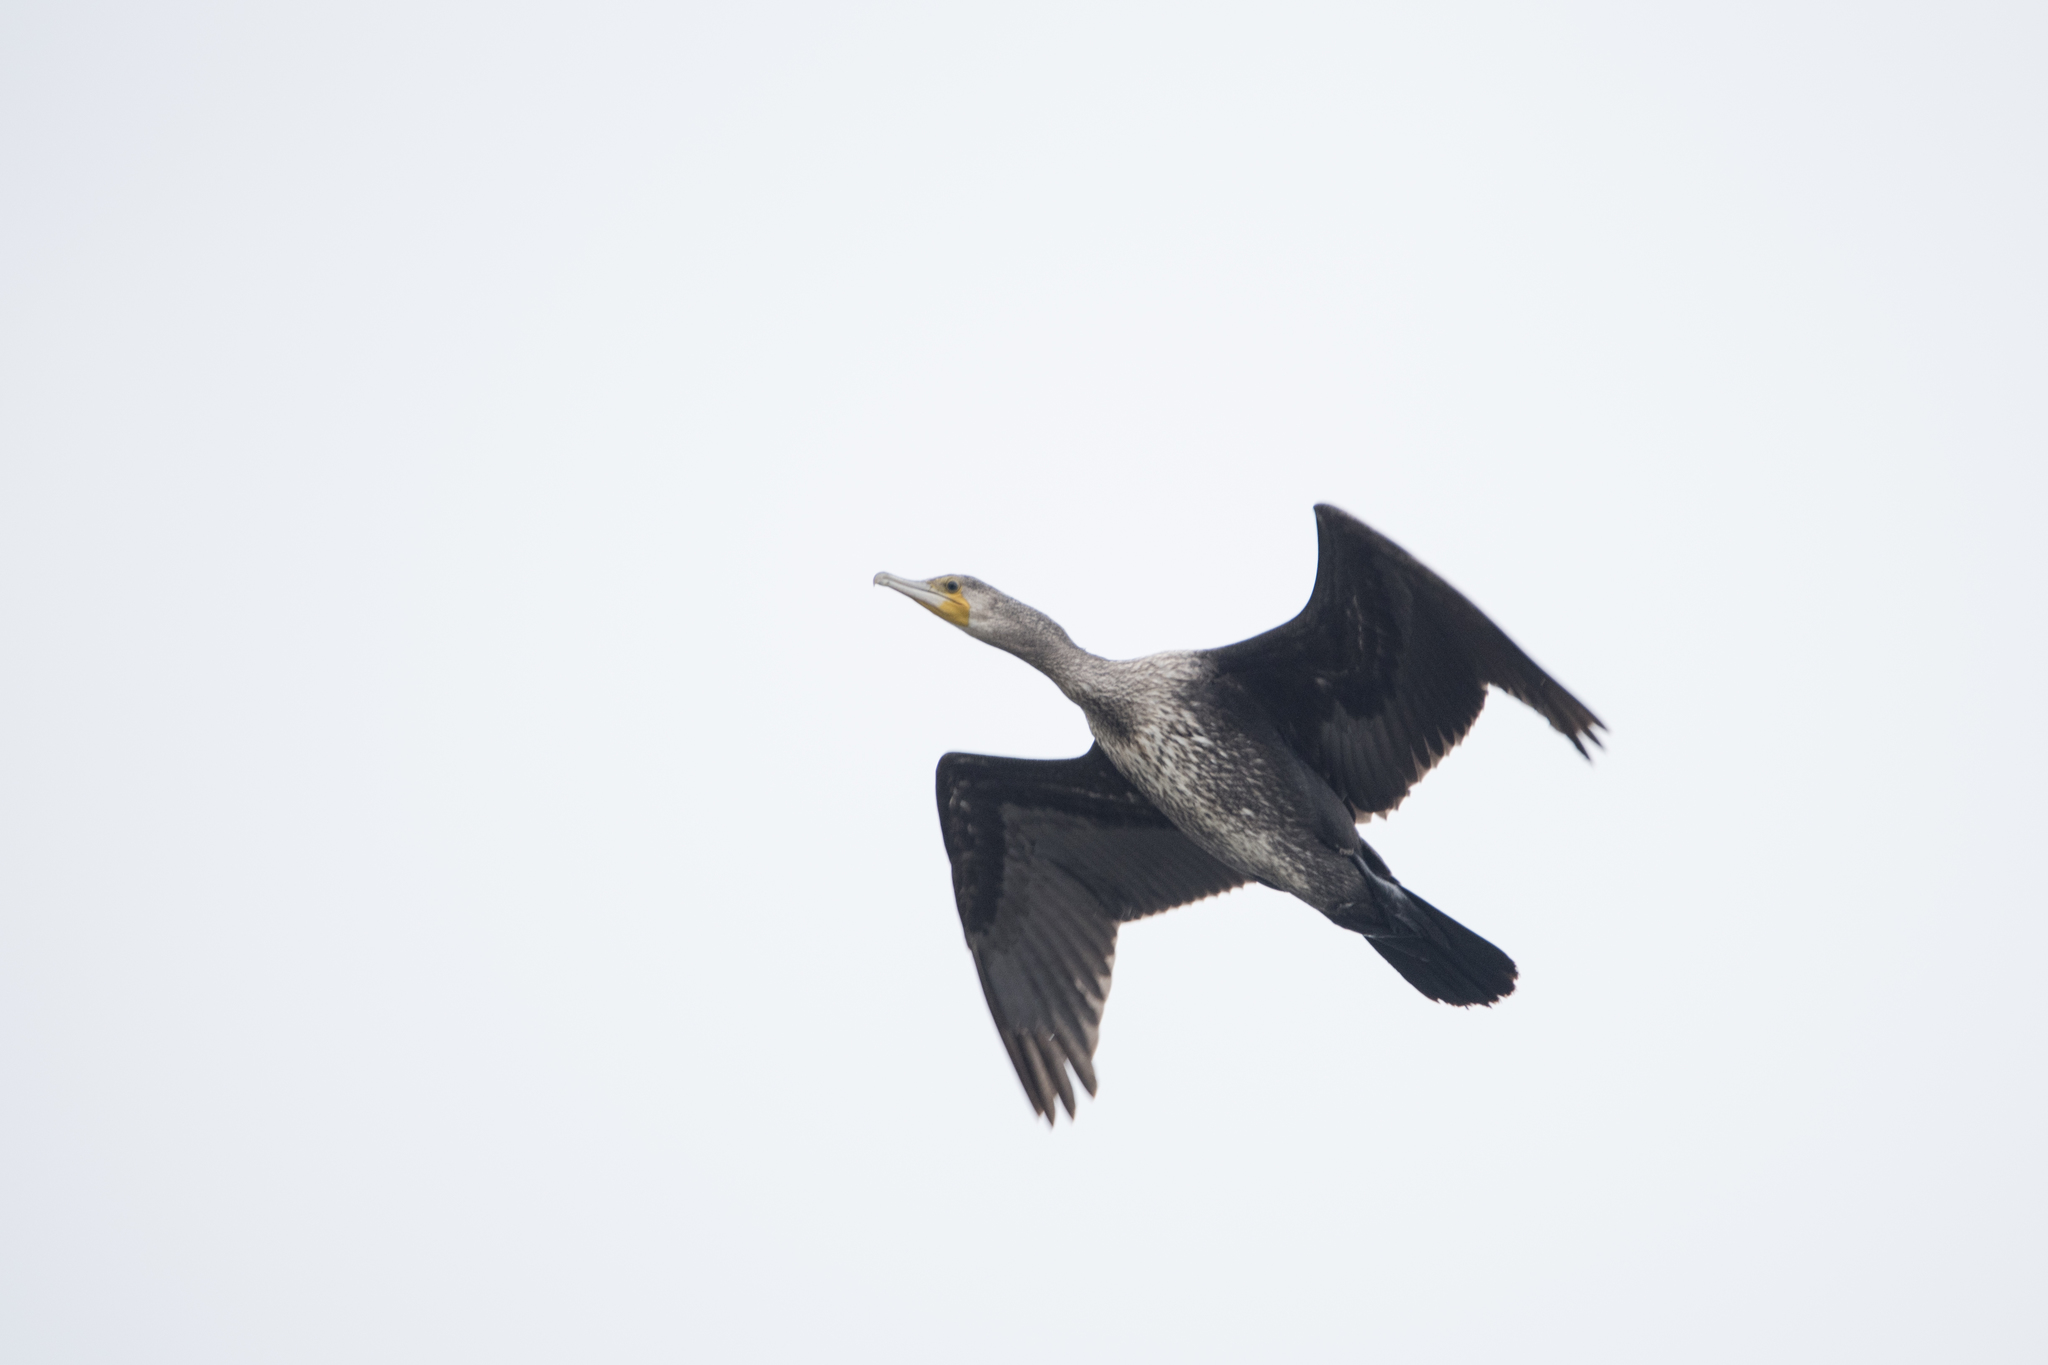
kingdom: Animalia
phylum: Chordata
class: Aves
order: Suliformes
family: Phalacrocoracidae
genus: Phalacrocorax
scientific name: Phalacrocorax carbo
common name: Great cormorant
